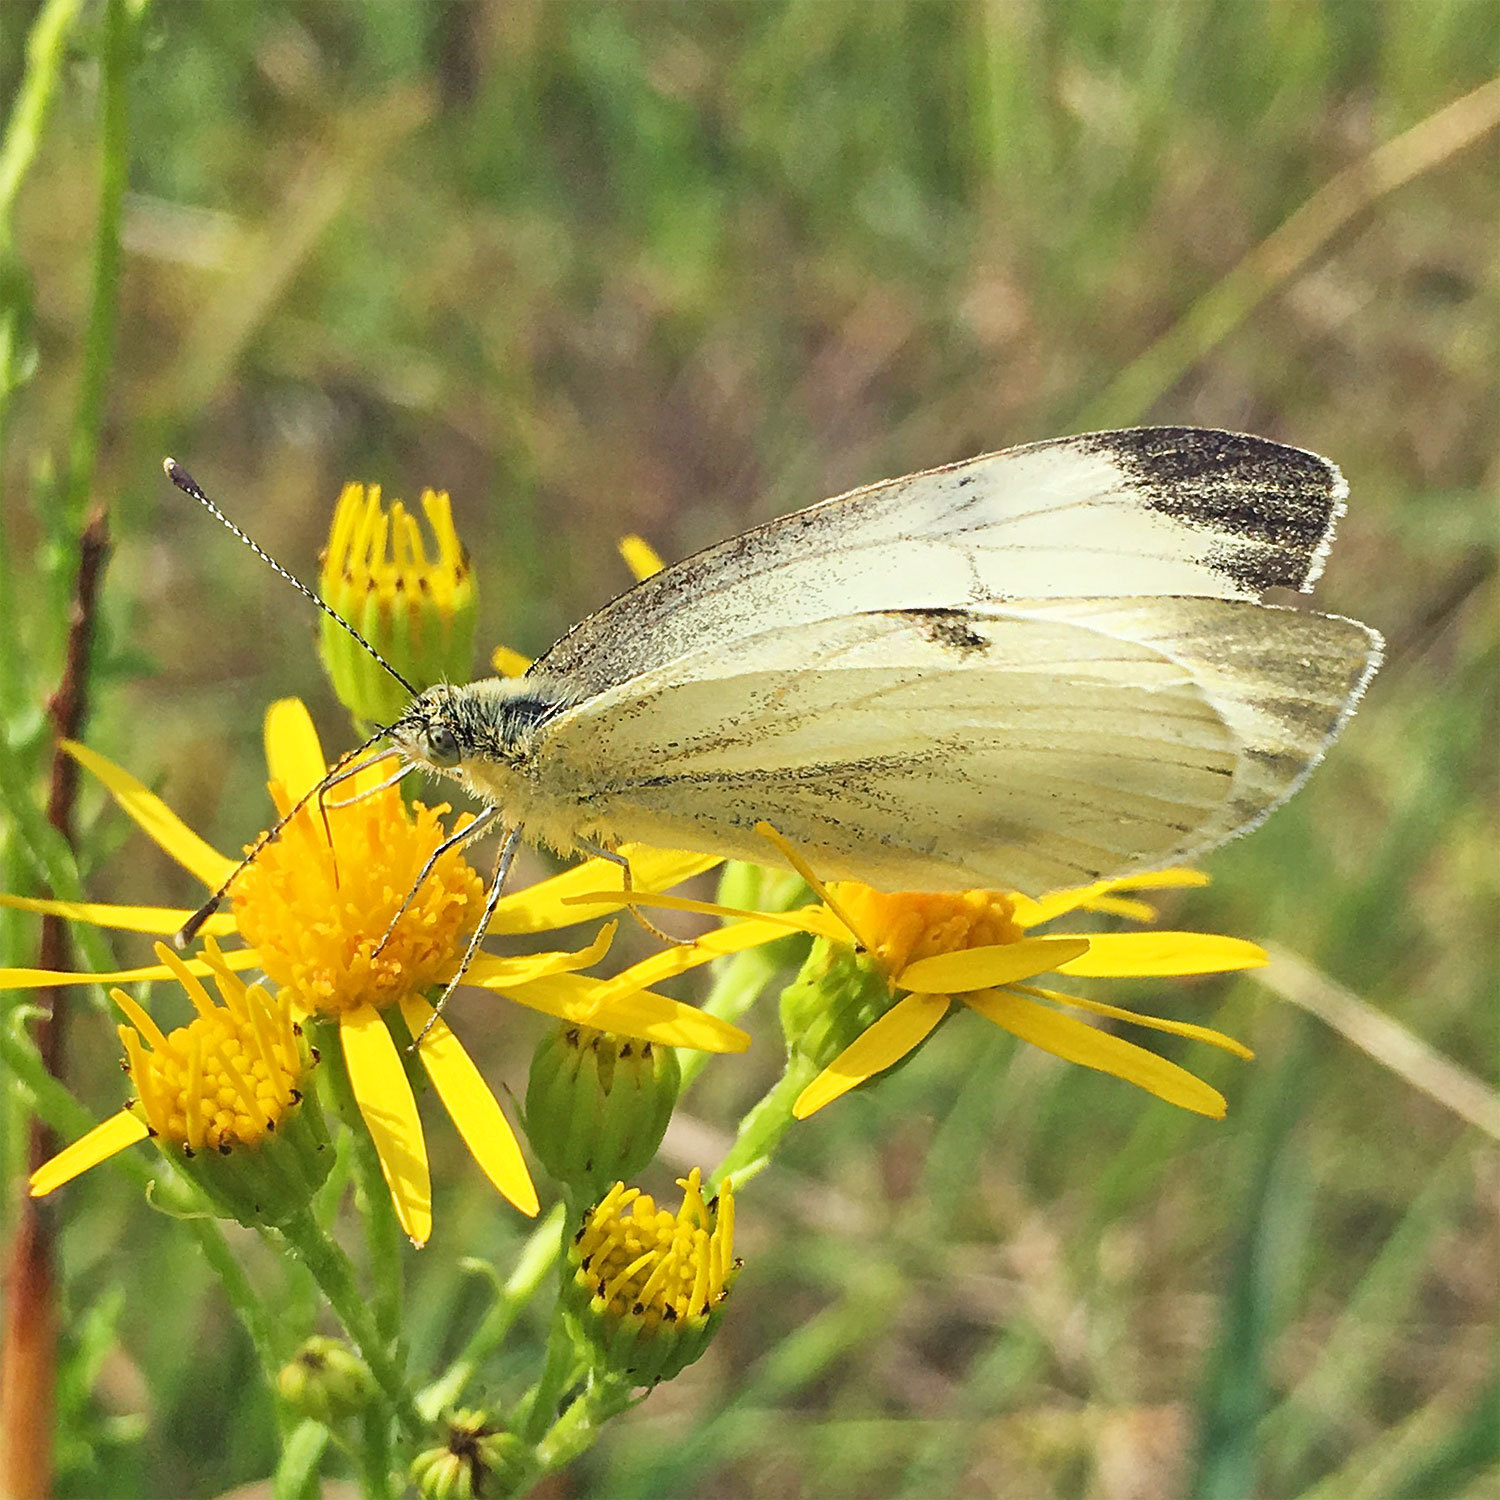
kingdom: Animalia
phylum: Arthropoda
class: Insecta
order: Lepidoptera
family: Pieridae
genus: Pieris
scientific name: Pieris napi
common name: Green-veined white
